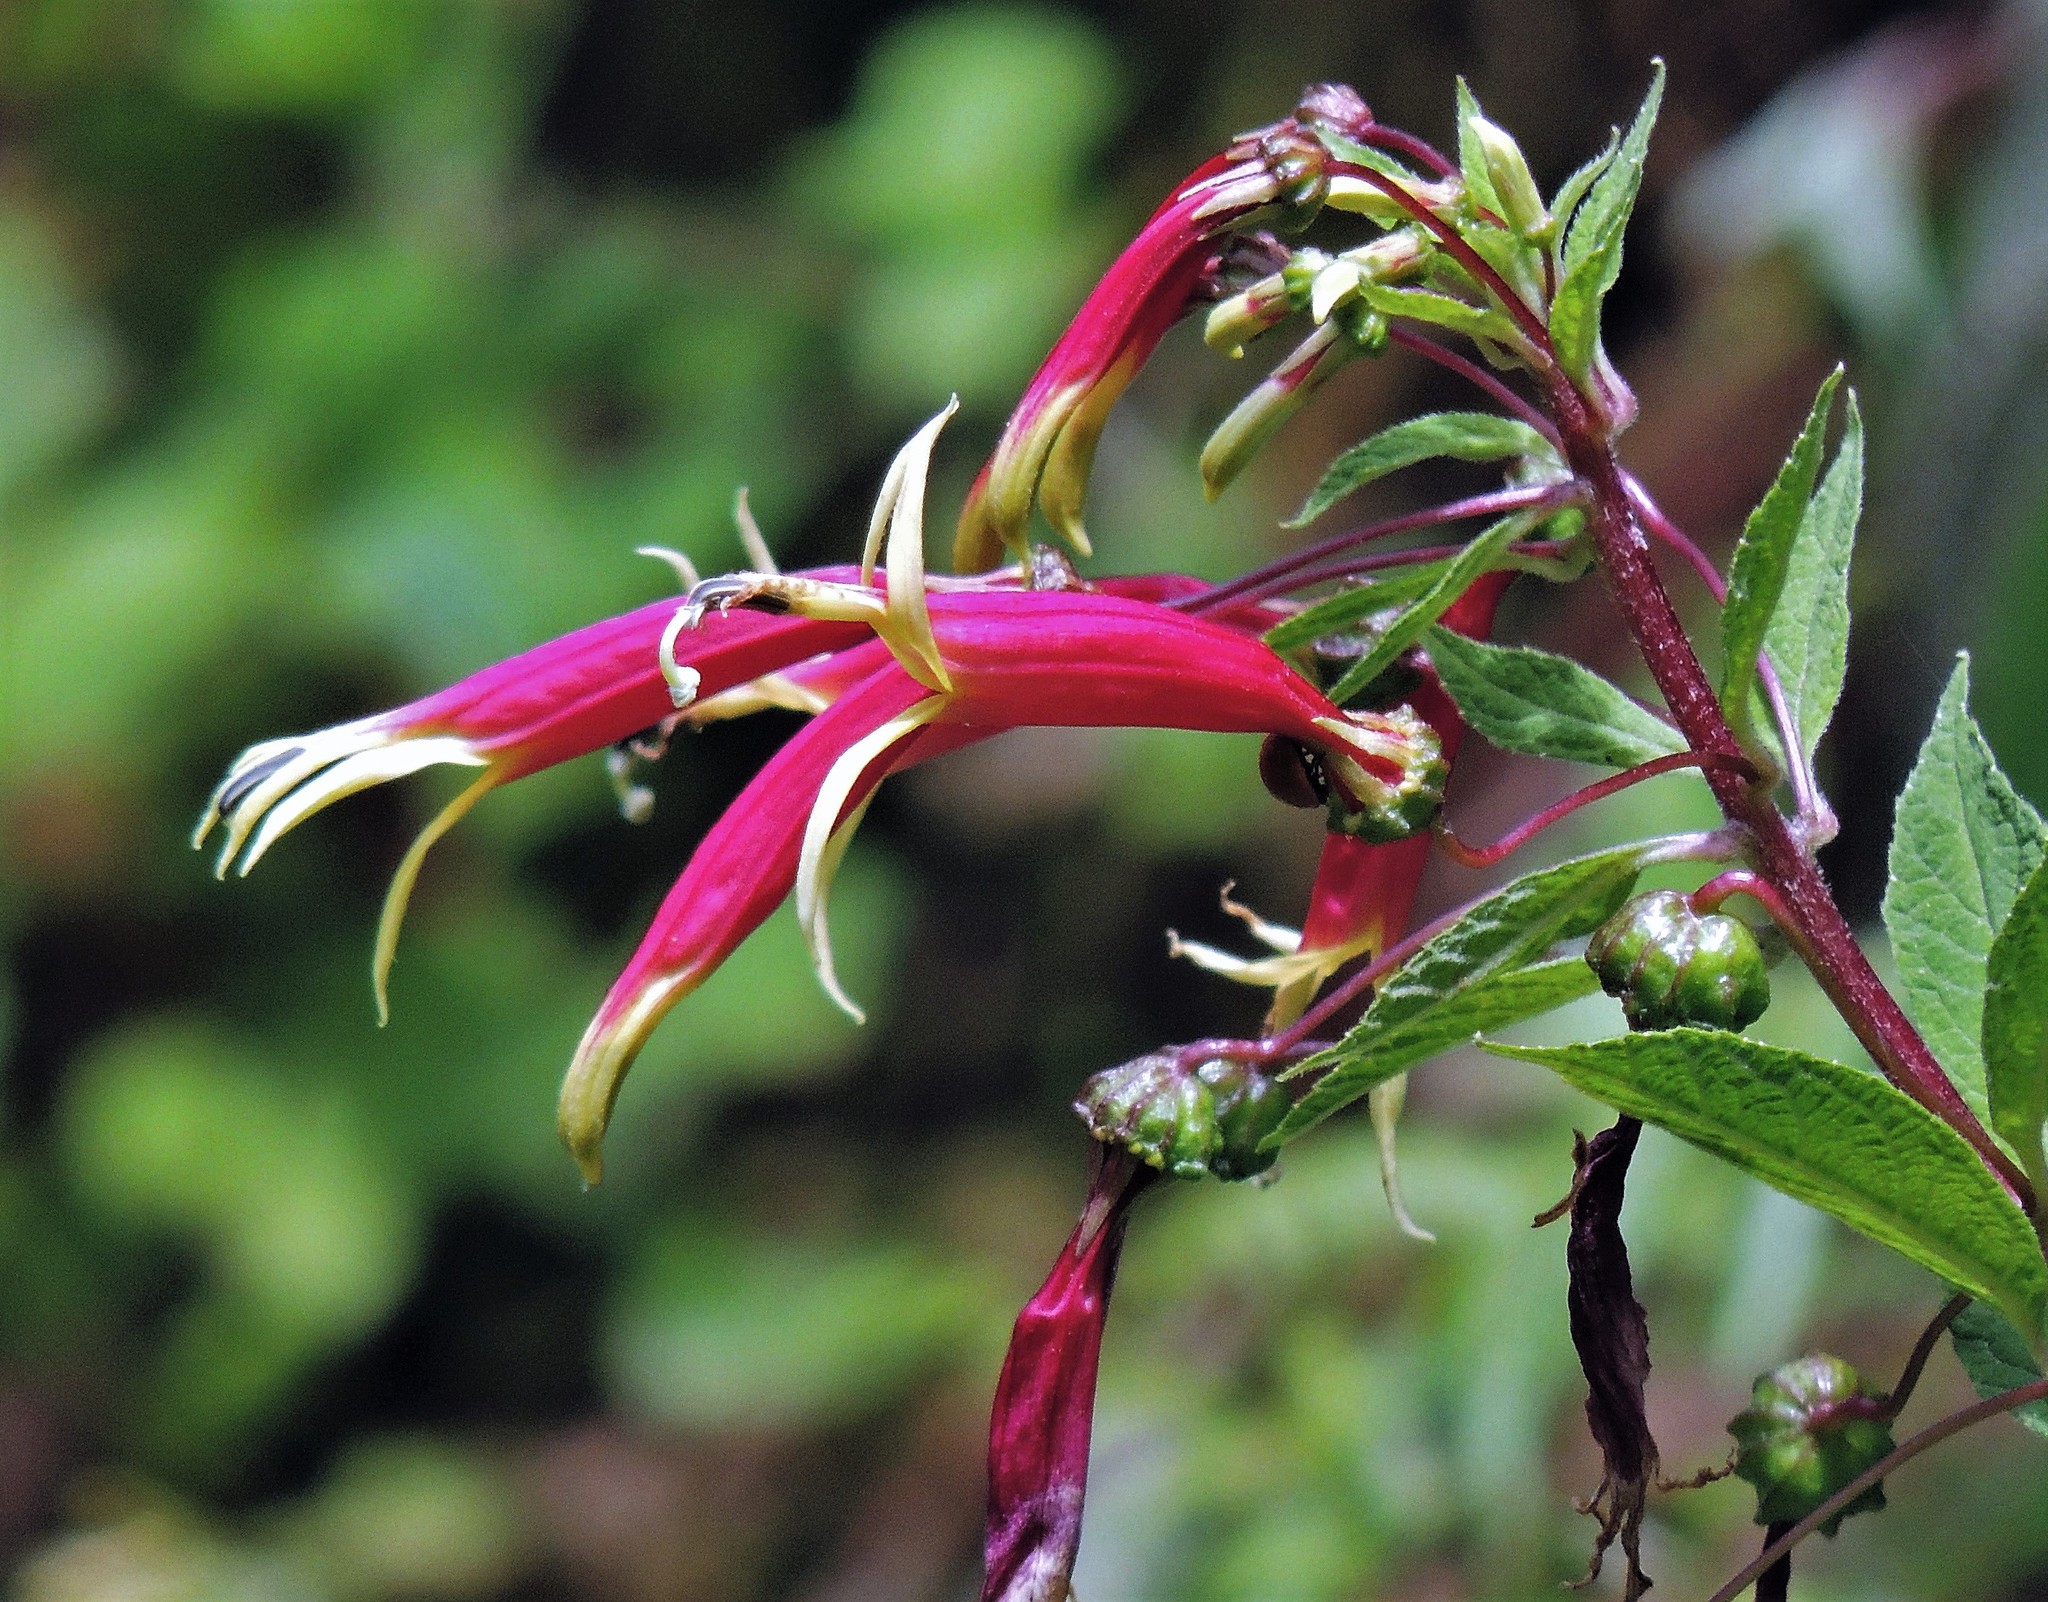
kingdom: Plantae
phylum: Tracheophyta
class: Magnoliopsida
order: Asterales
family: Campanulaceae
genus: Siphocampylus
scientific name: Siphocampylus orbignianus
